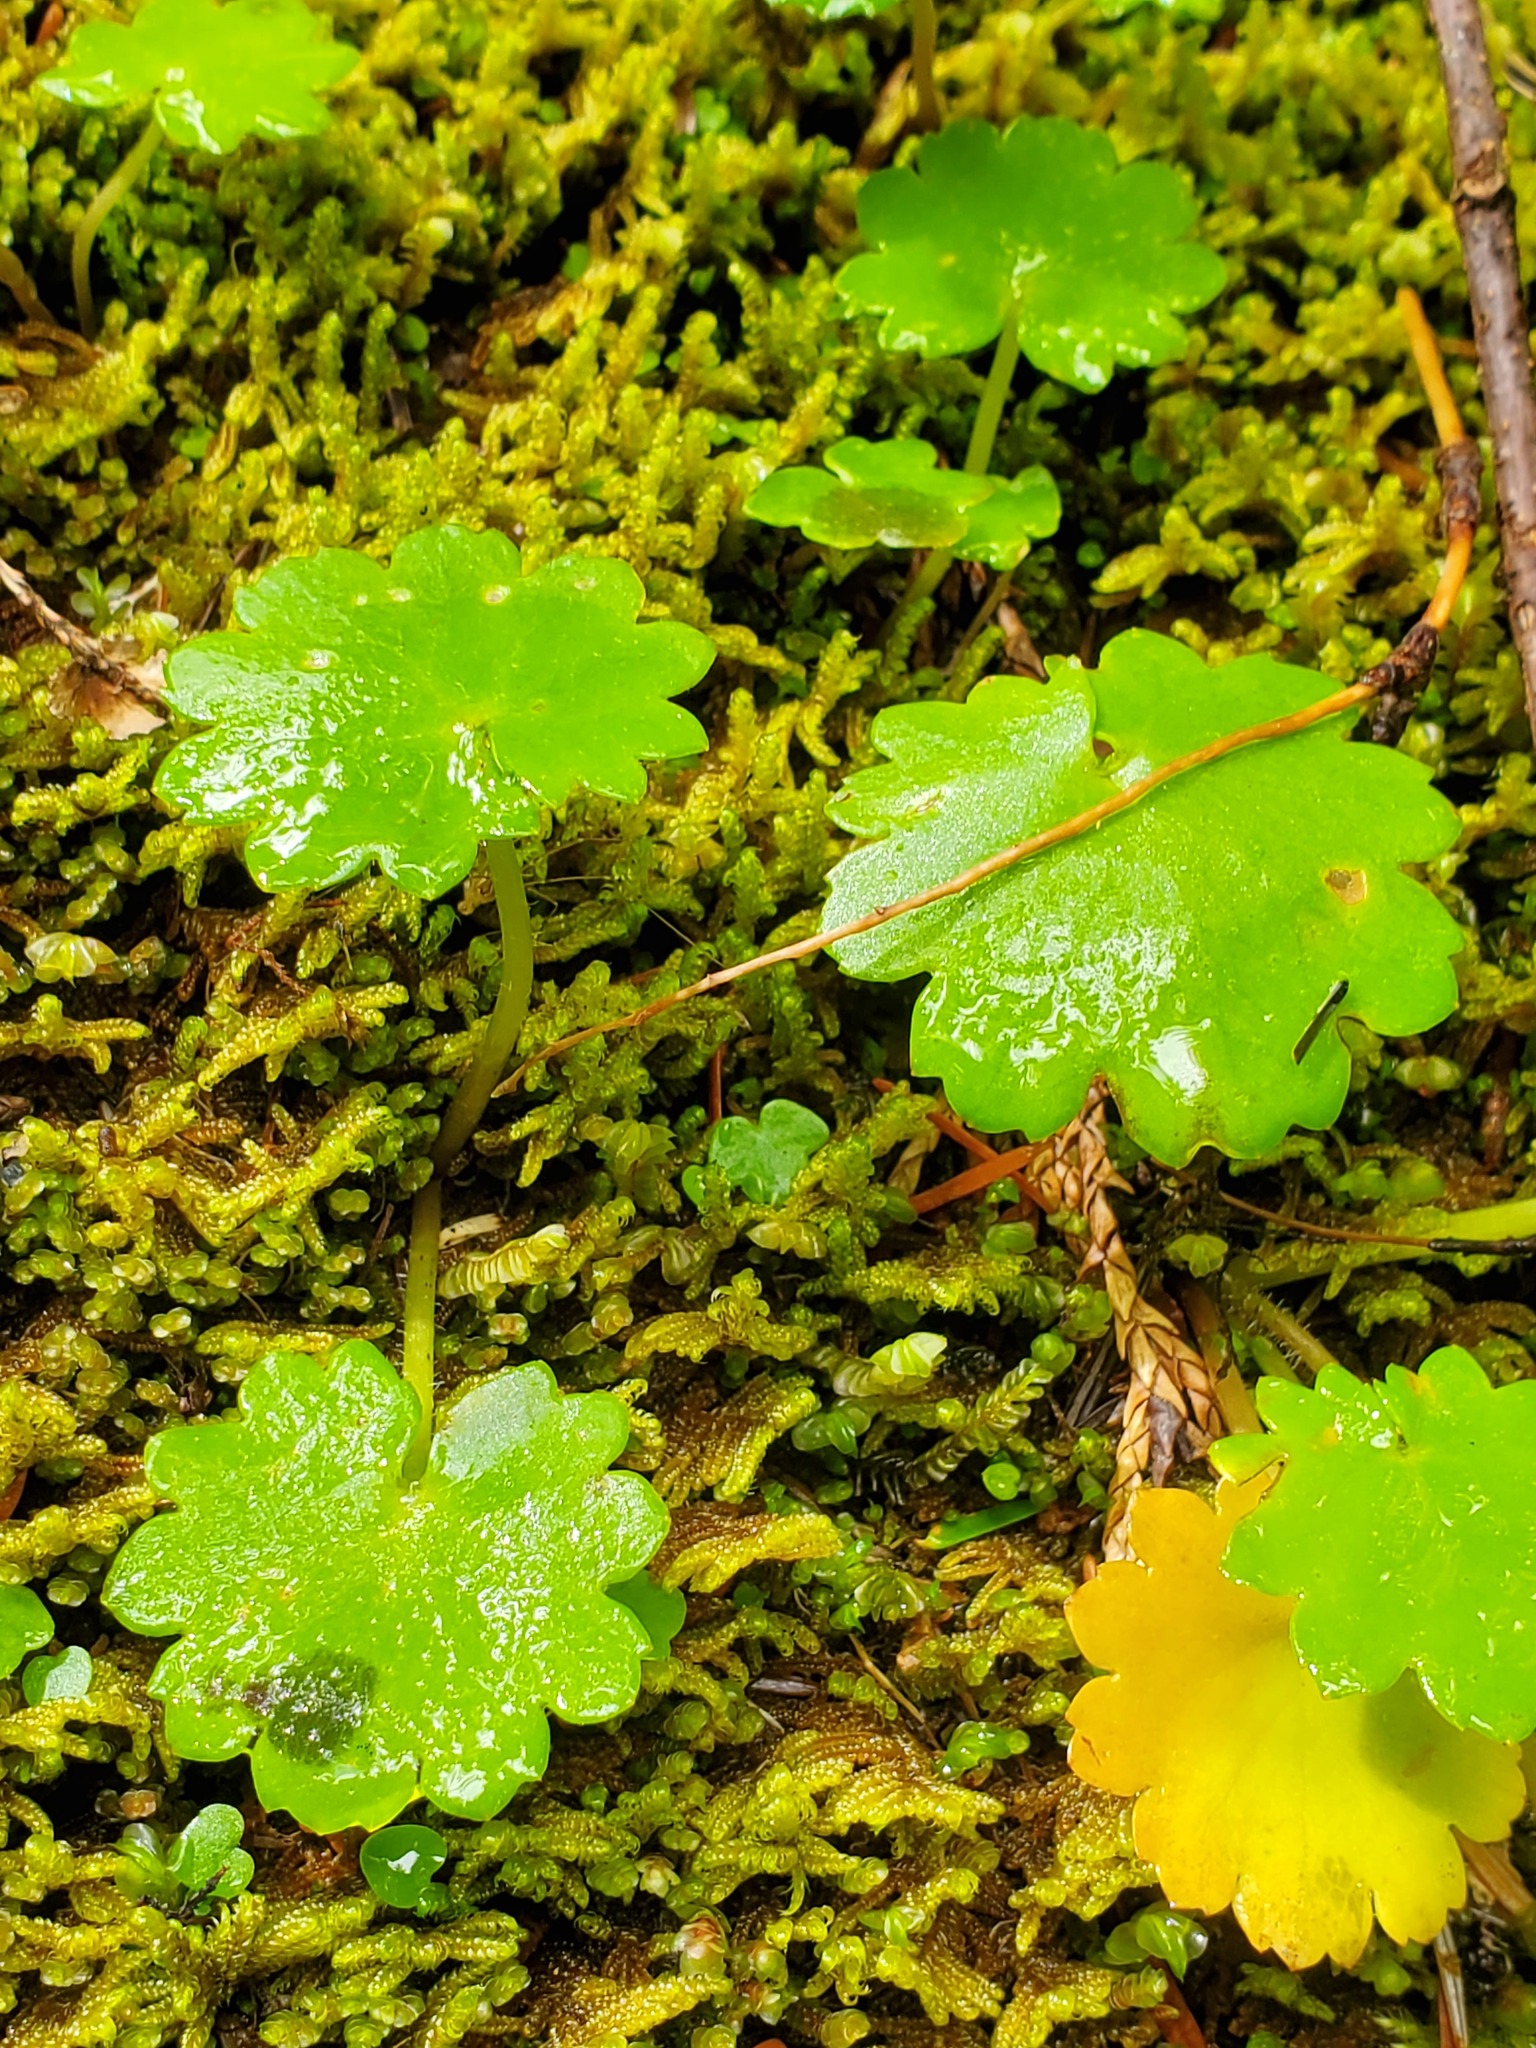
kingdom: Plantae
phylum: Tracheophyta
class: Magnoliopsida
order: Saxifragales
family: Saxifragaceae
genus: Micranthes
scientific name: Micranthes mertensiana
